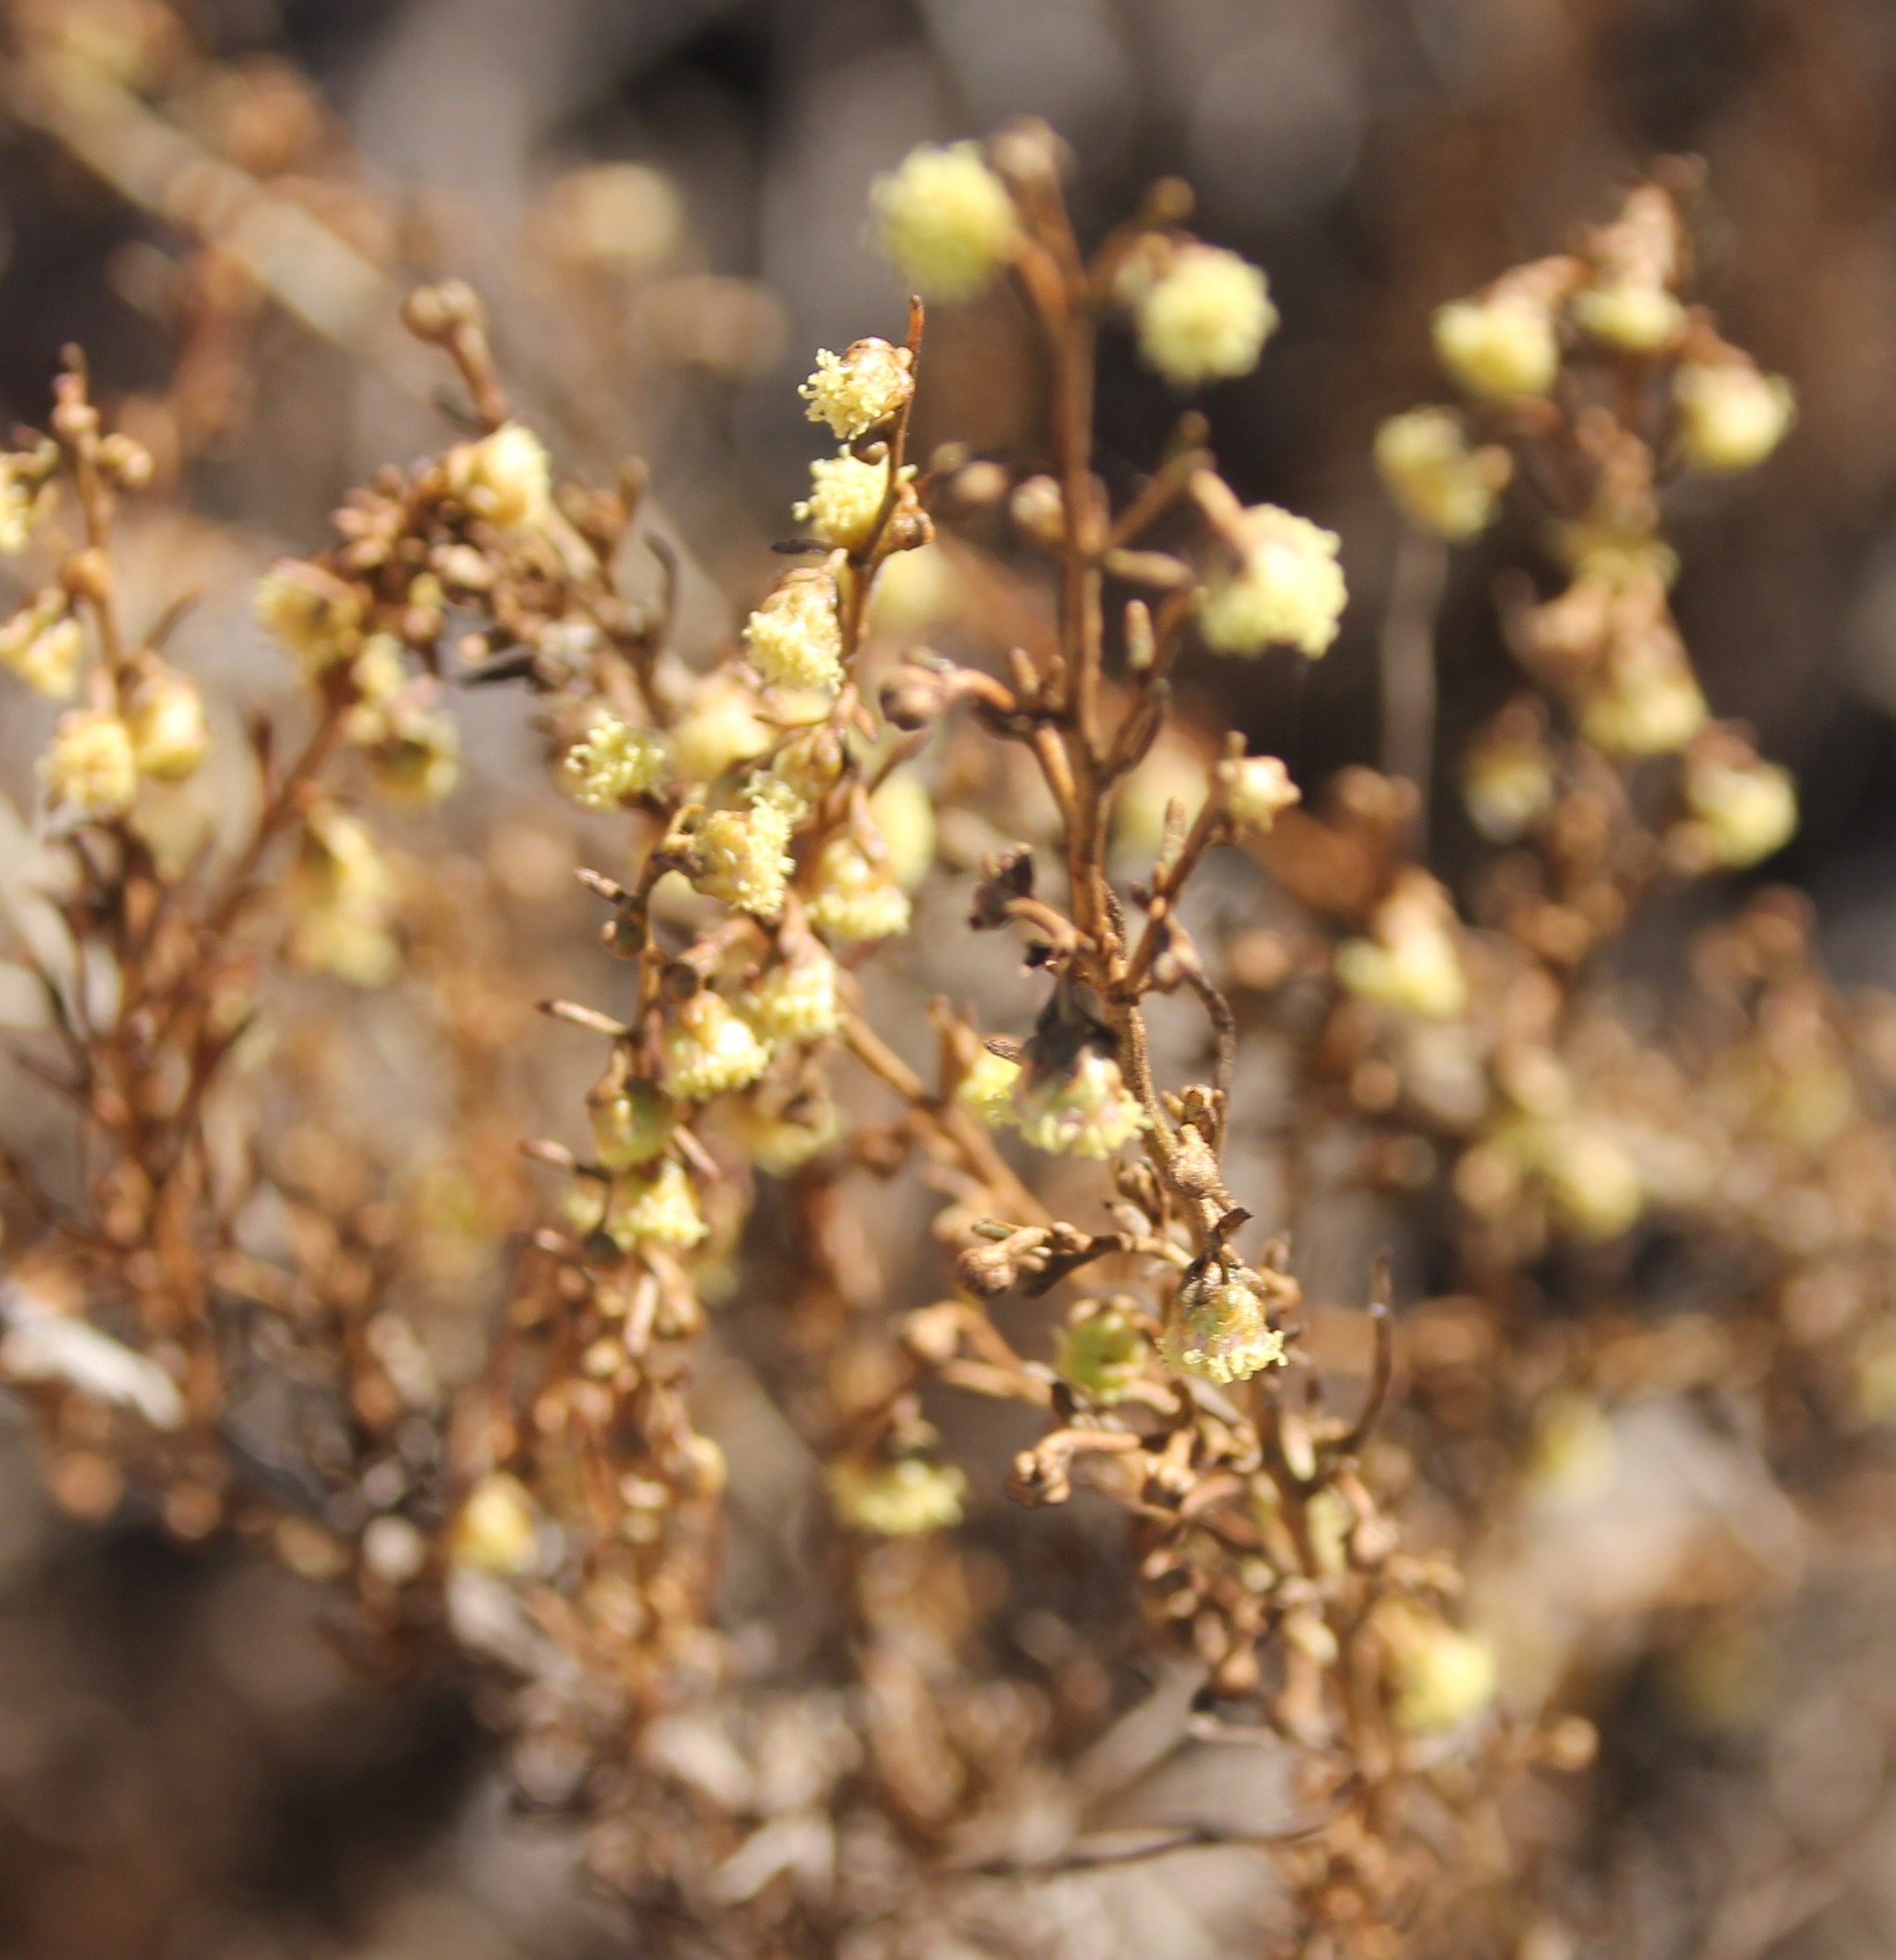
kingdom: Plantae
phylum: Tracheophyta
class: Magnoliopsida
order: Asterales
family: Asteraceae
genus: Artemisia
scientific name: Artemisia californica
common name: California sagebrush
